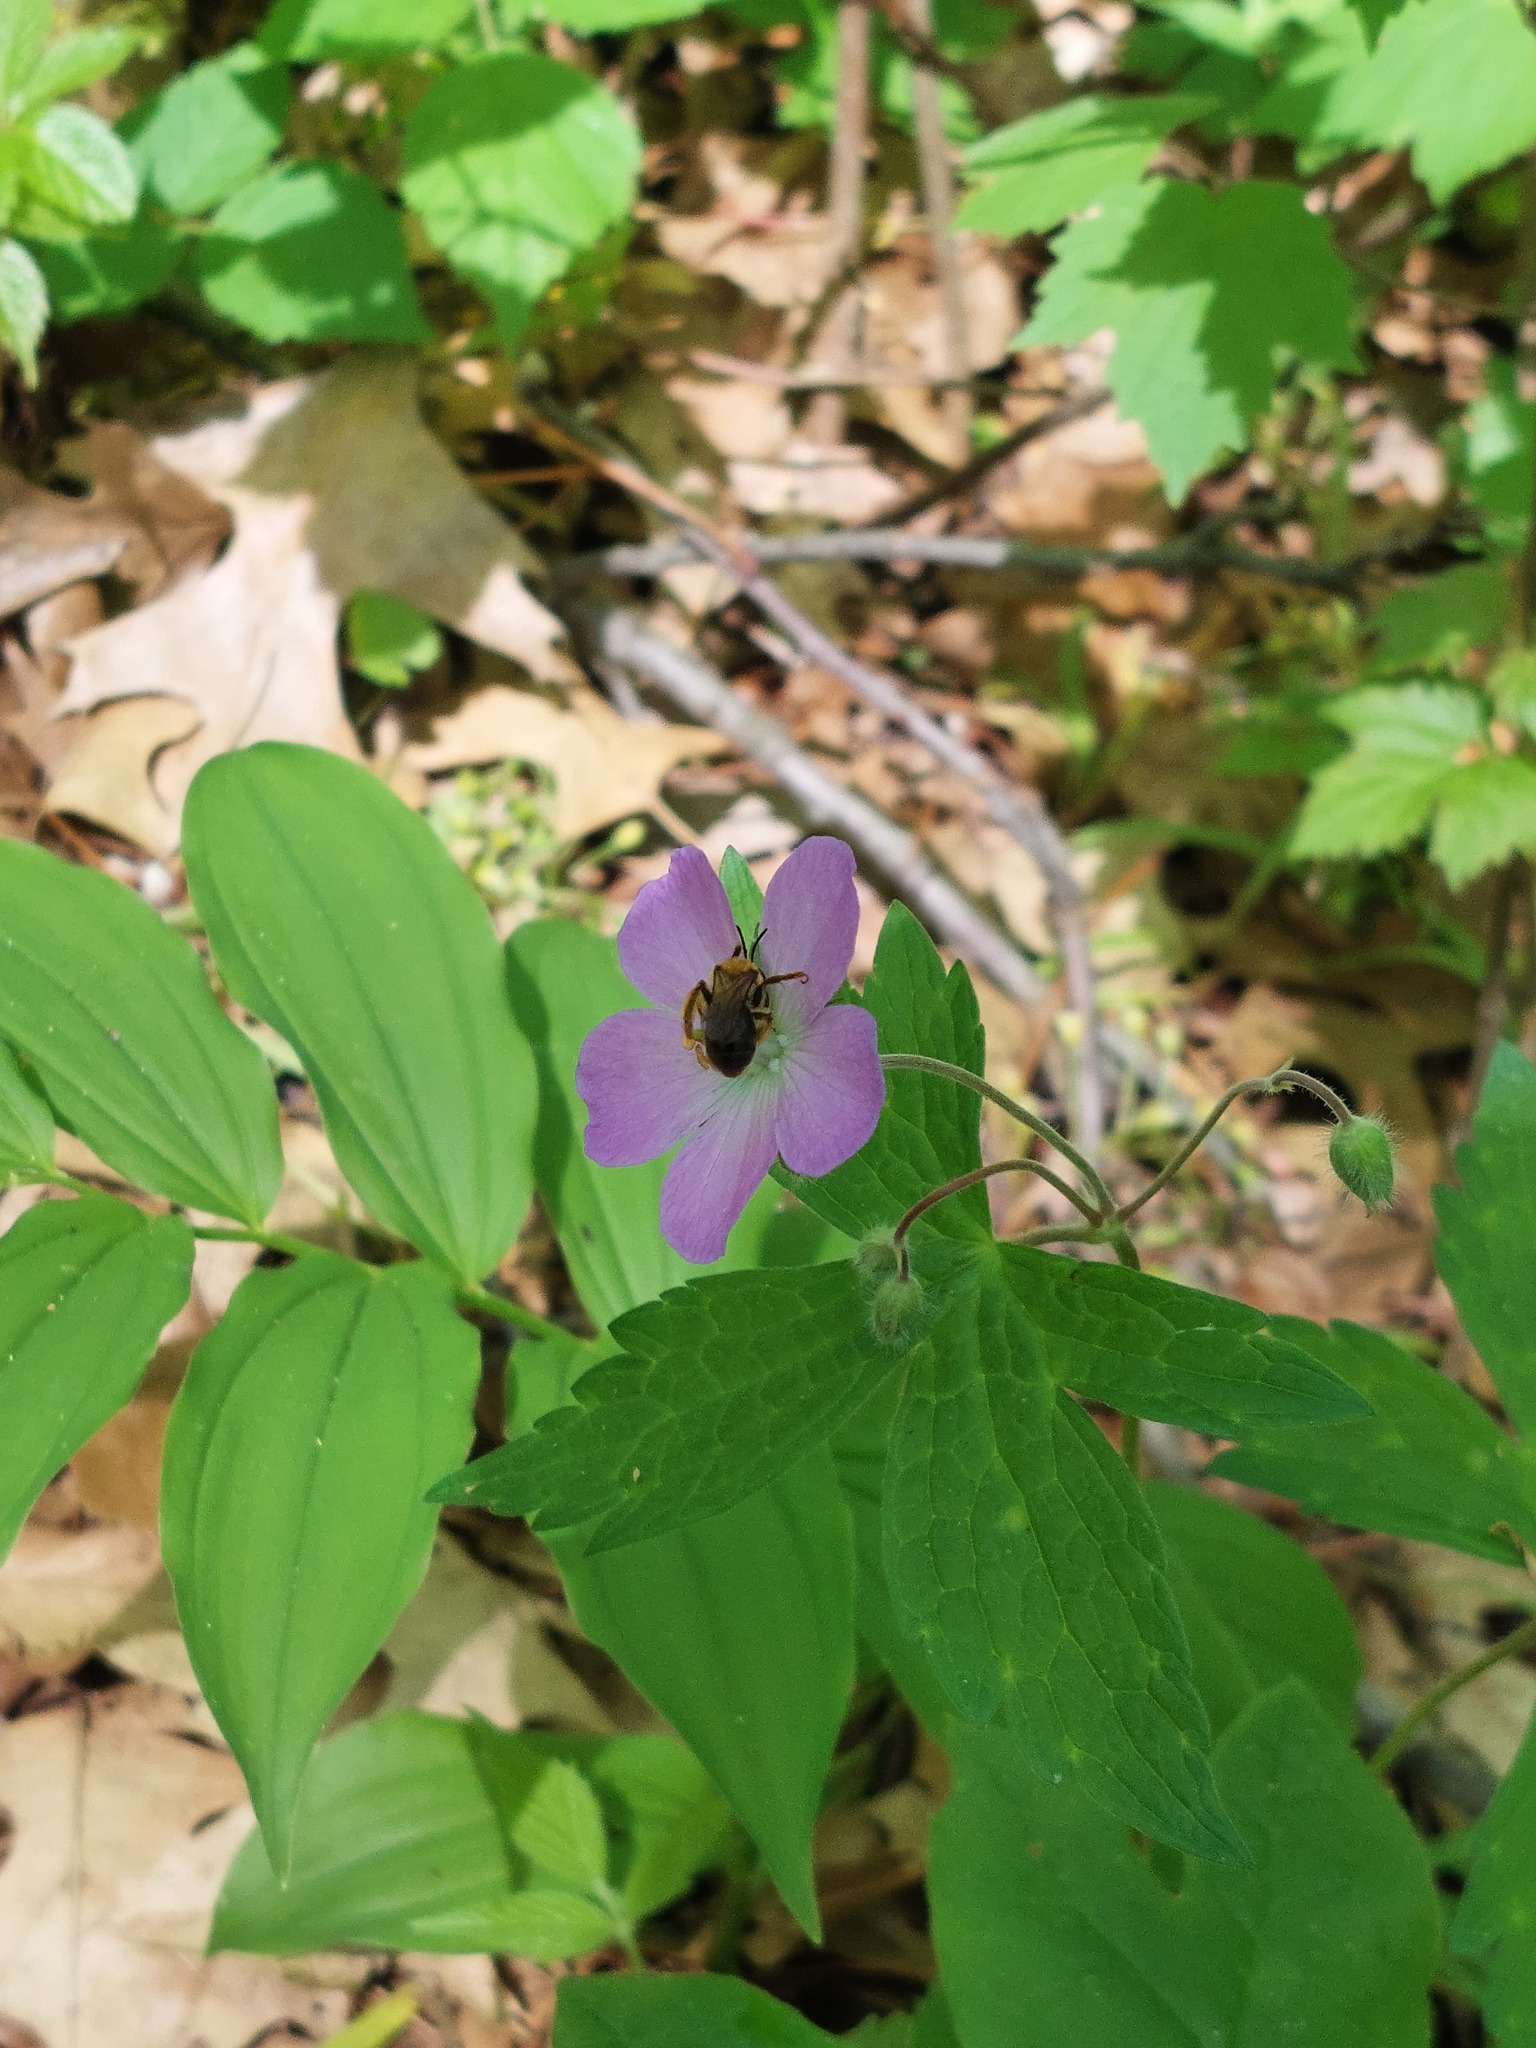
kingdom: Plantae
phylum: Tracheophyta
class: Magnoliopsida
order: Geraniales
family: Geraniaceae
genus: Geranium
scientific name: Geranium maculatum
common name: Spotted geranium
